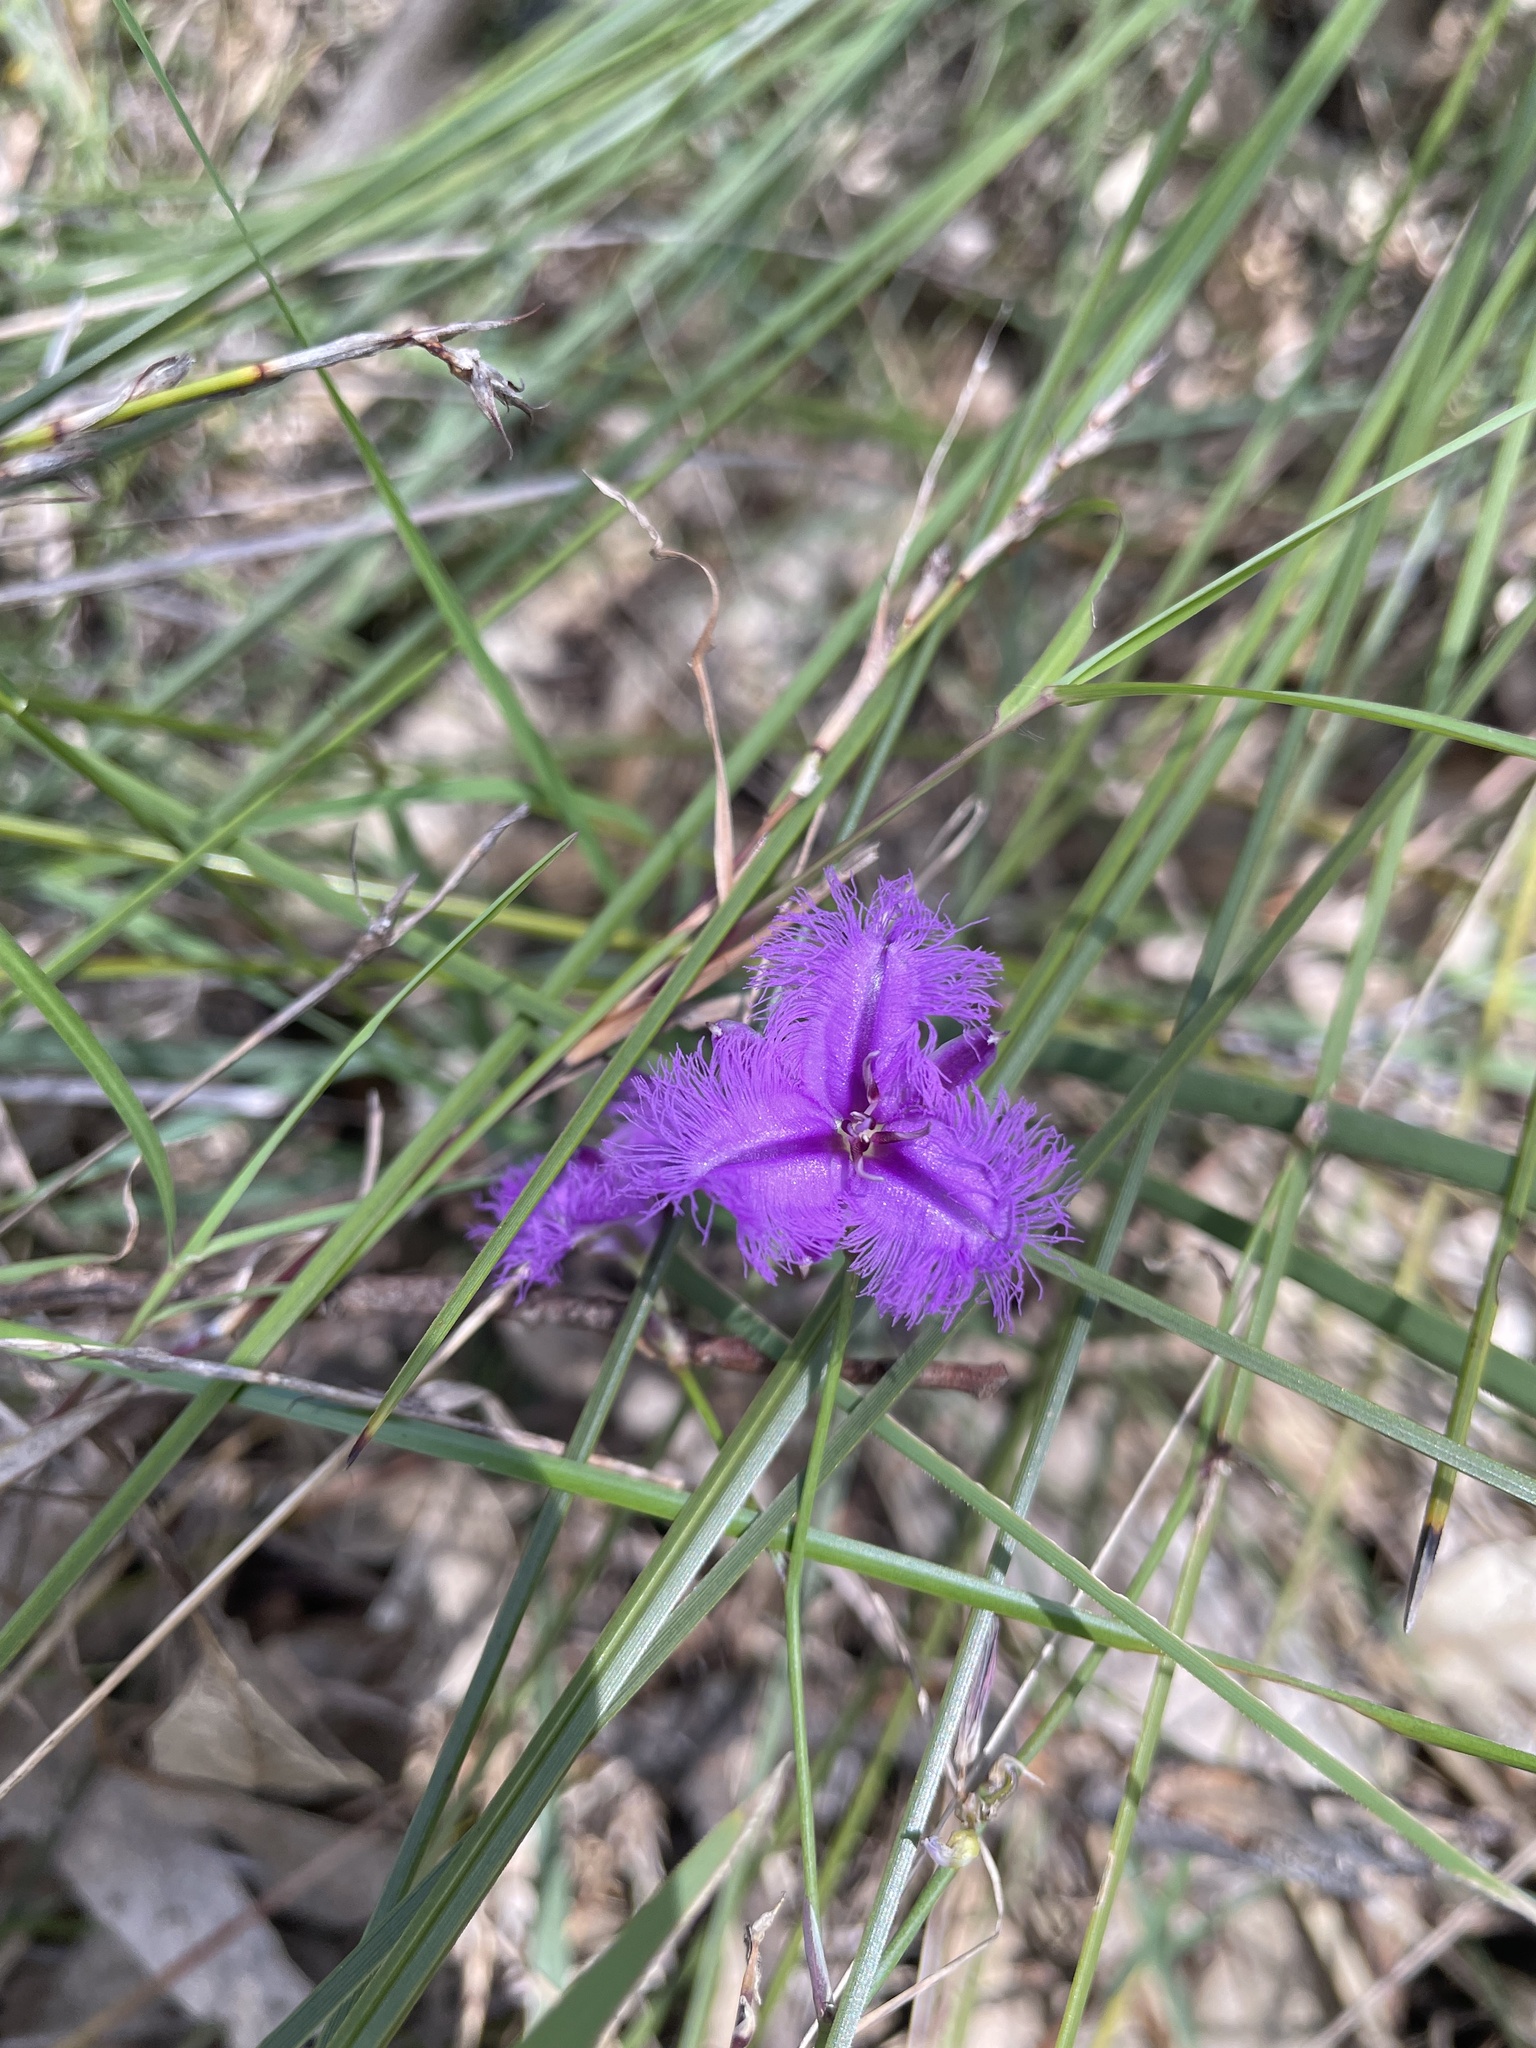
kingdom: Plantae
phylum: Tracheophyta
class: Liliopsida
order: Asparagales
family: Asparagaceae
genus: Thysanotus
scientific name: Thysanotus tuberosus
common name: Common fringed-lily
